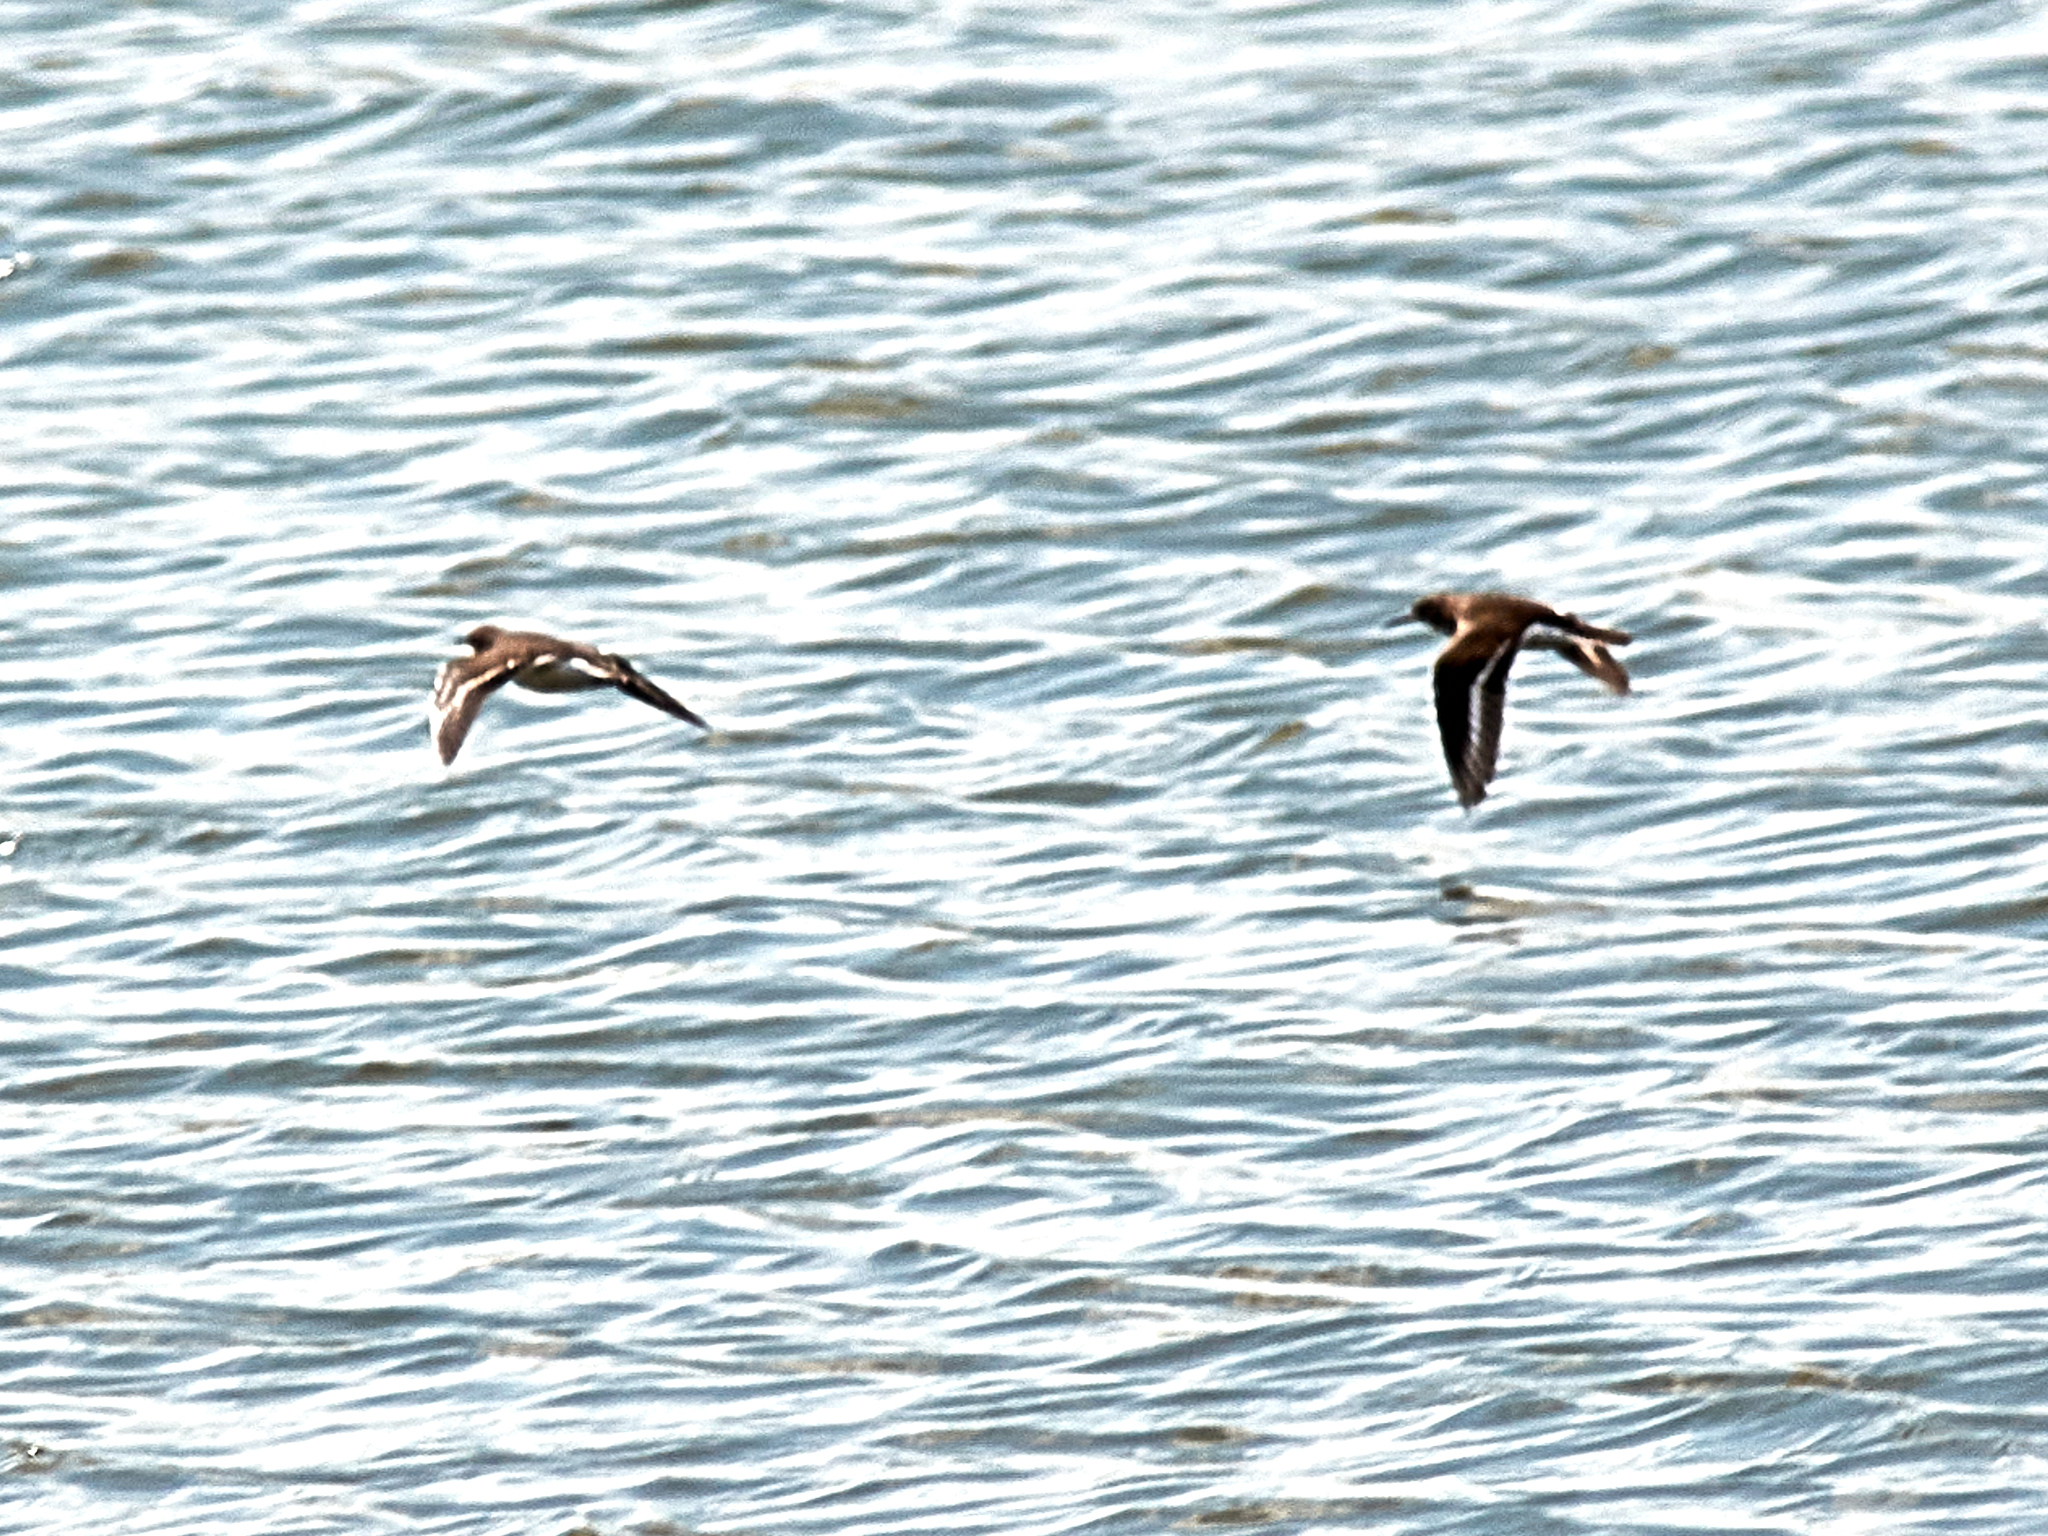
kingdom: Animalia
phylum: Chordata
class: Aves
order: Charadriiformes
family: Scolopacidae
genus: Actitis
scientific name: Actitis hypoleucos
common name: Common sandpiper
